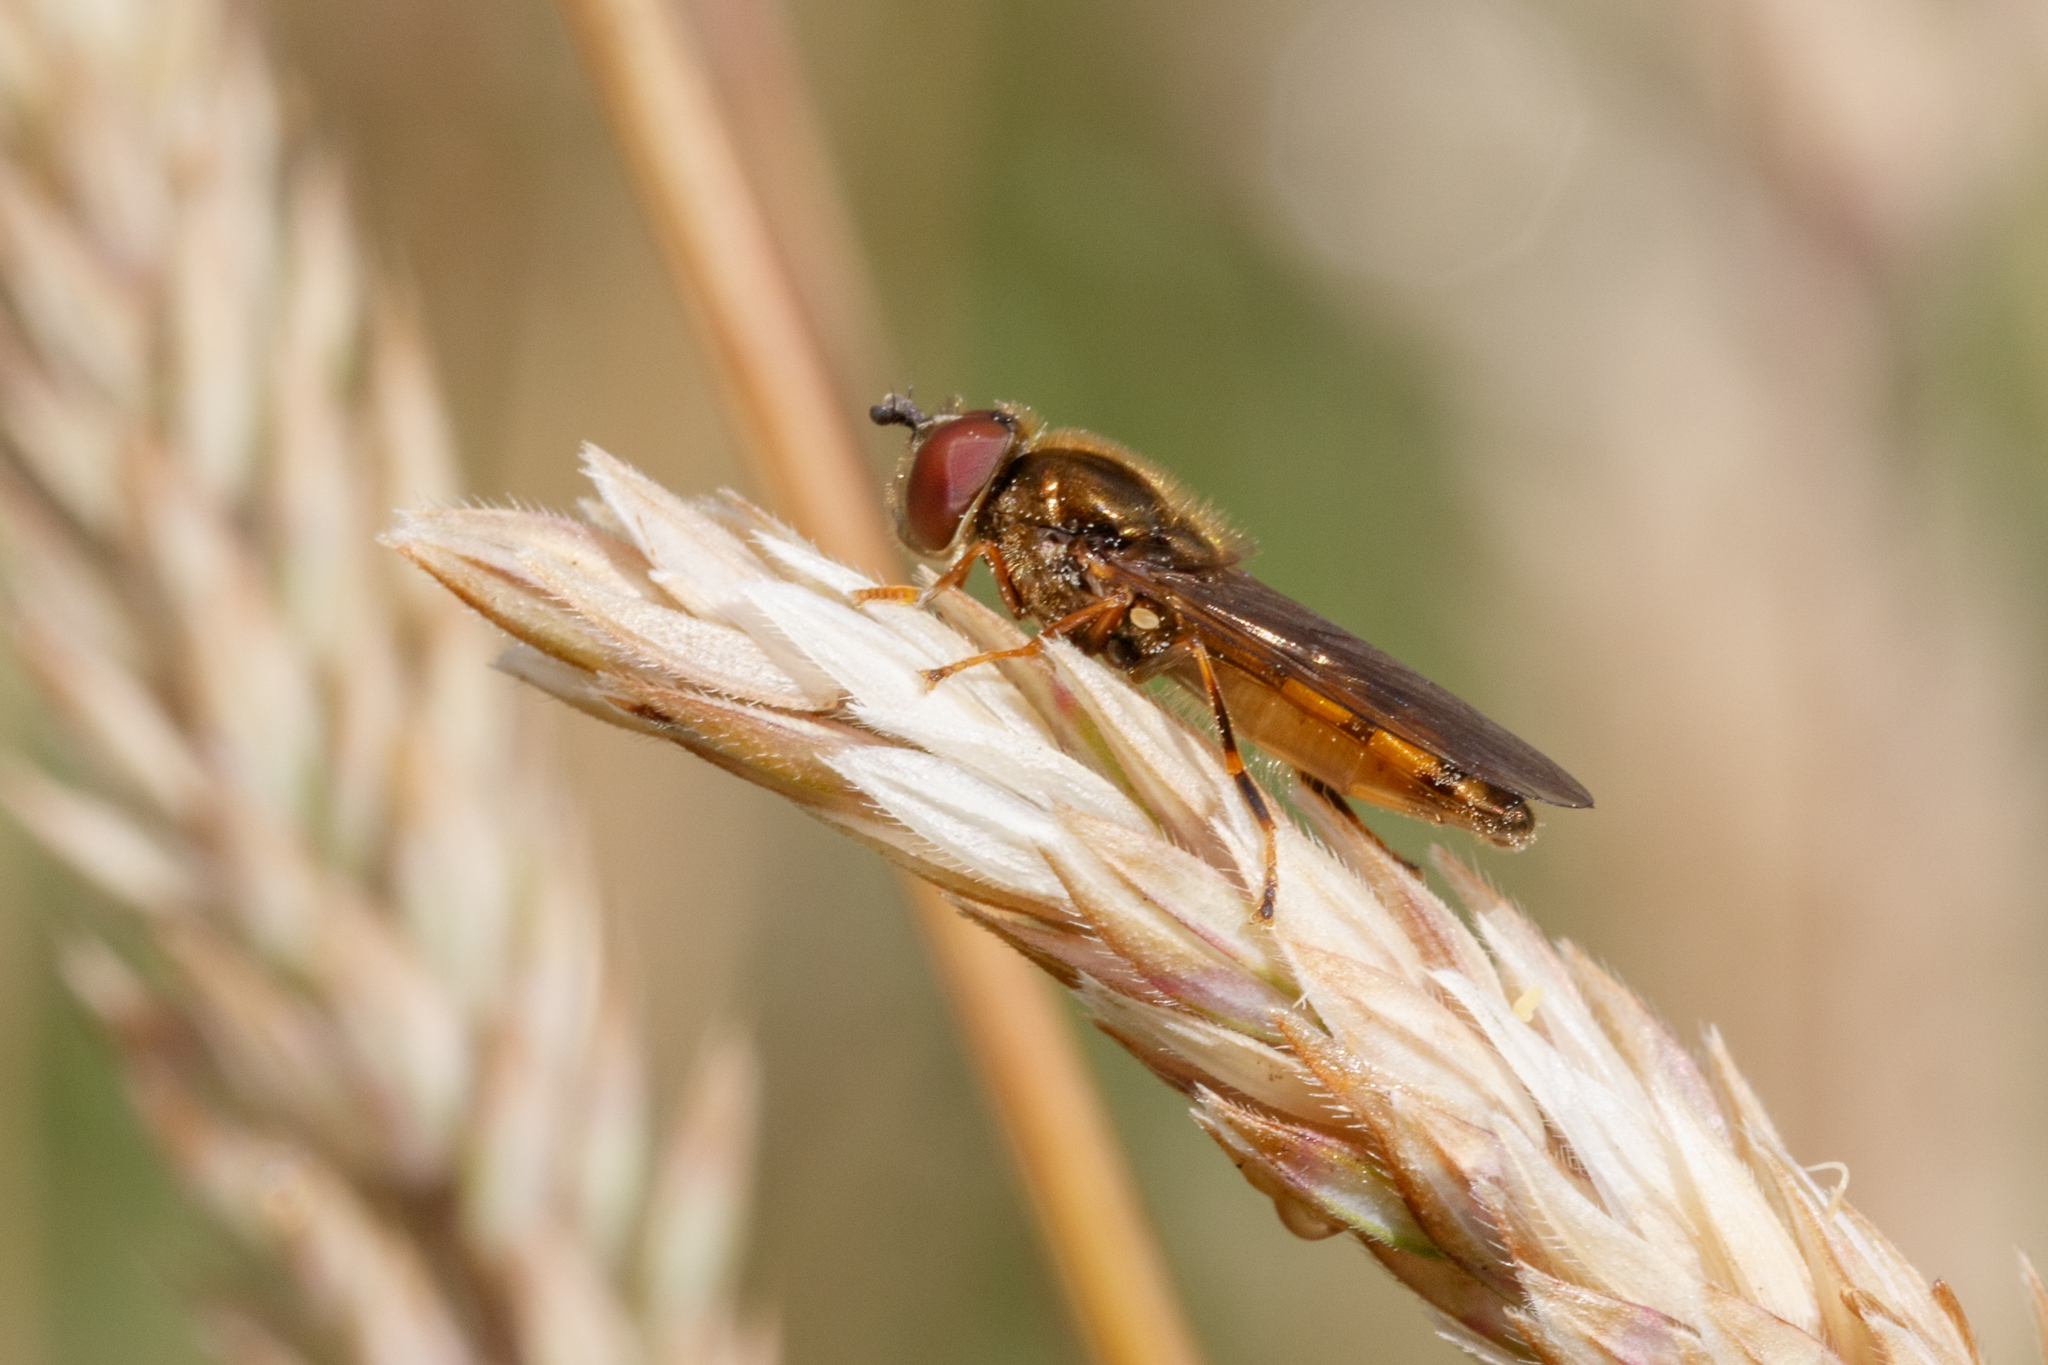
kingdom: Animalia
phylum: Arthropoda
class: Insecta
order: Diptera
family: Syrphidae
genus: Platycheirus
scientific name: Platycheirus
